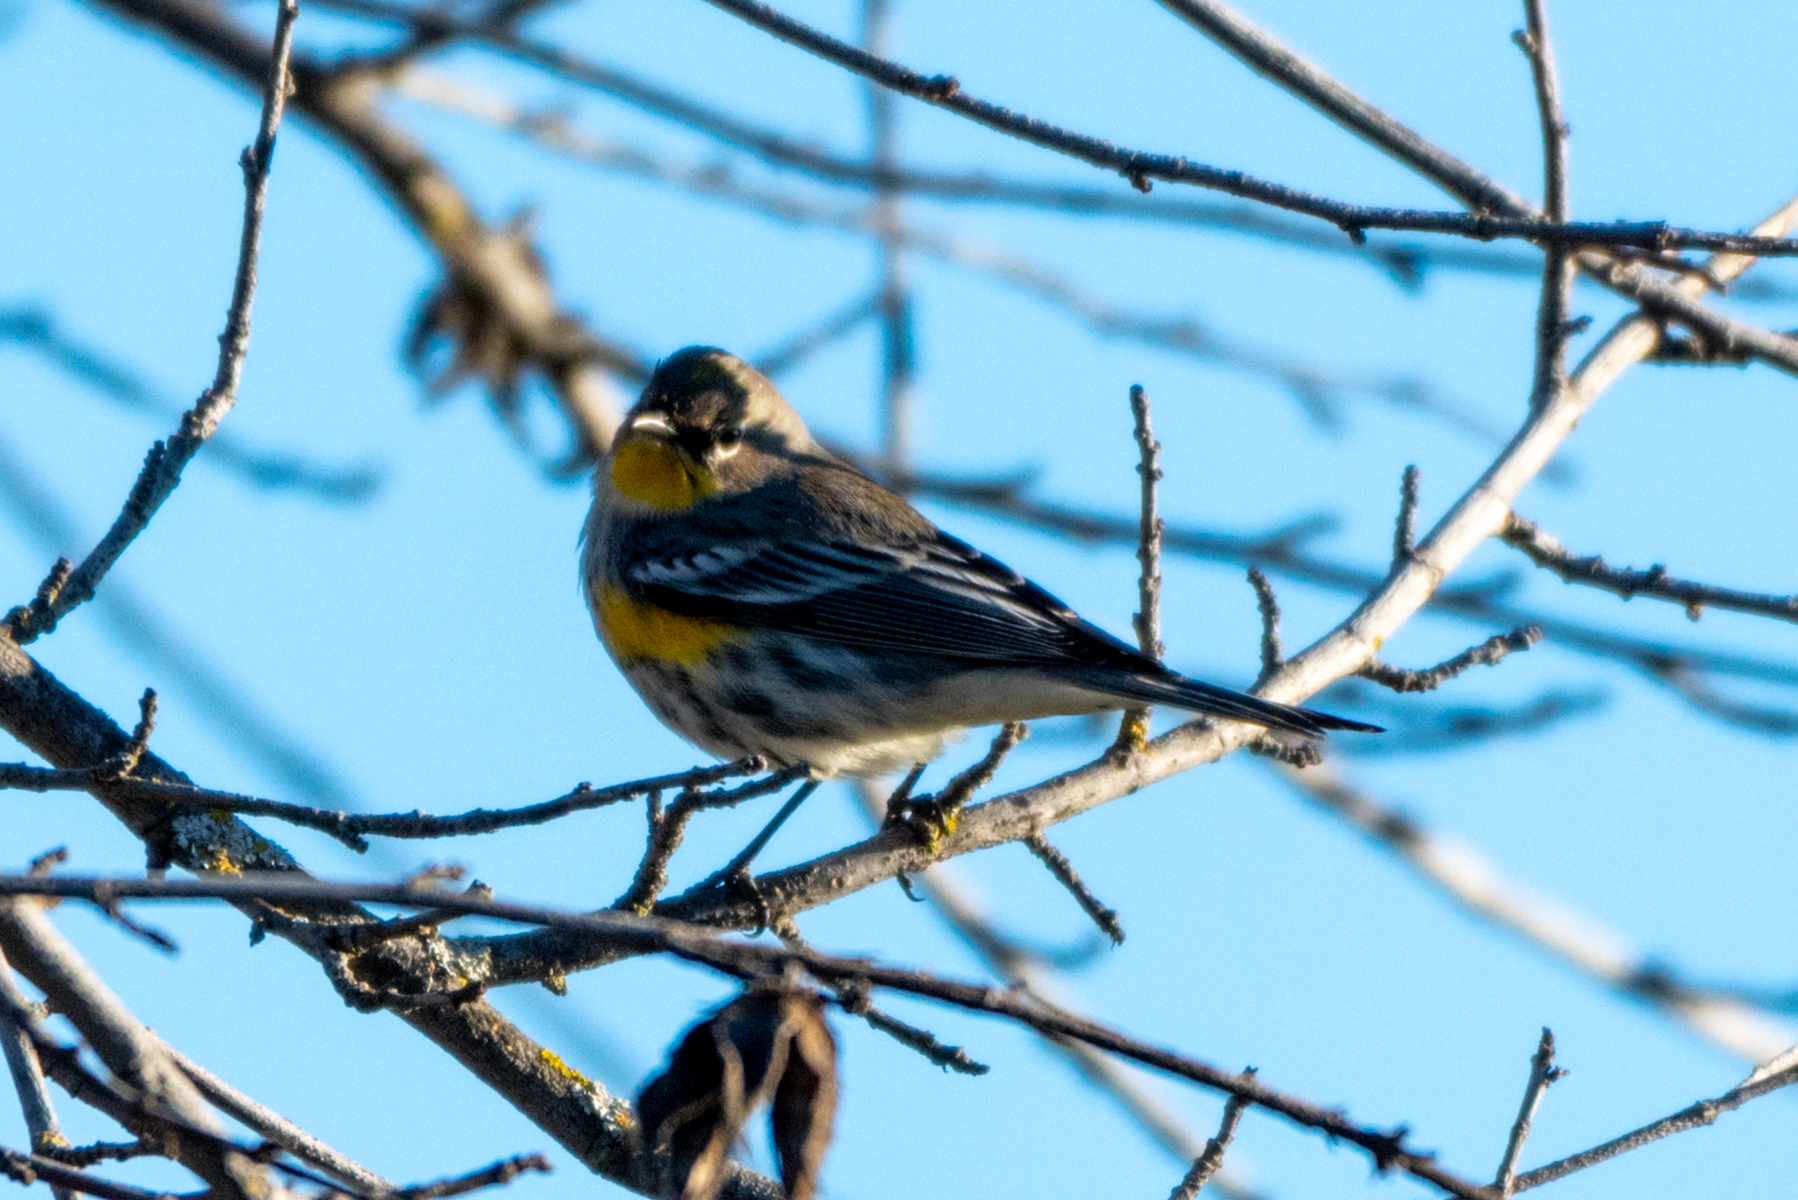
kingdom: Animalia
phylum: Chordata
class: Aves
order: Passeriformes
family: Parulidae
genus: Setophaga
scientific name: Setophaga coronata
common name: Myrtle warbler
